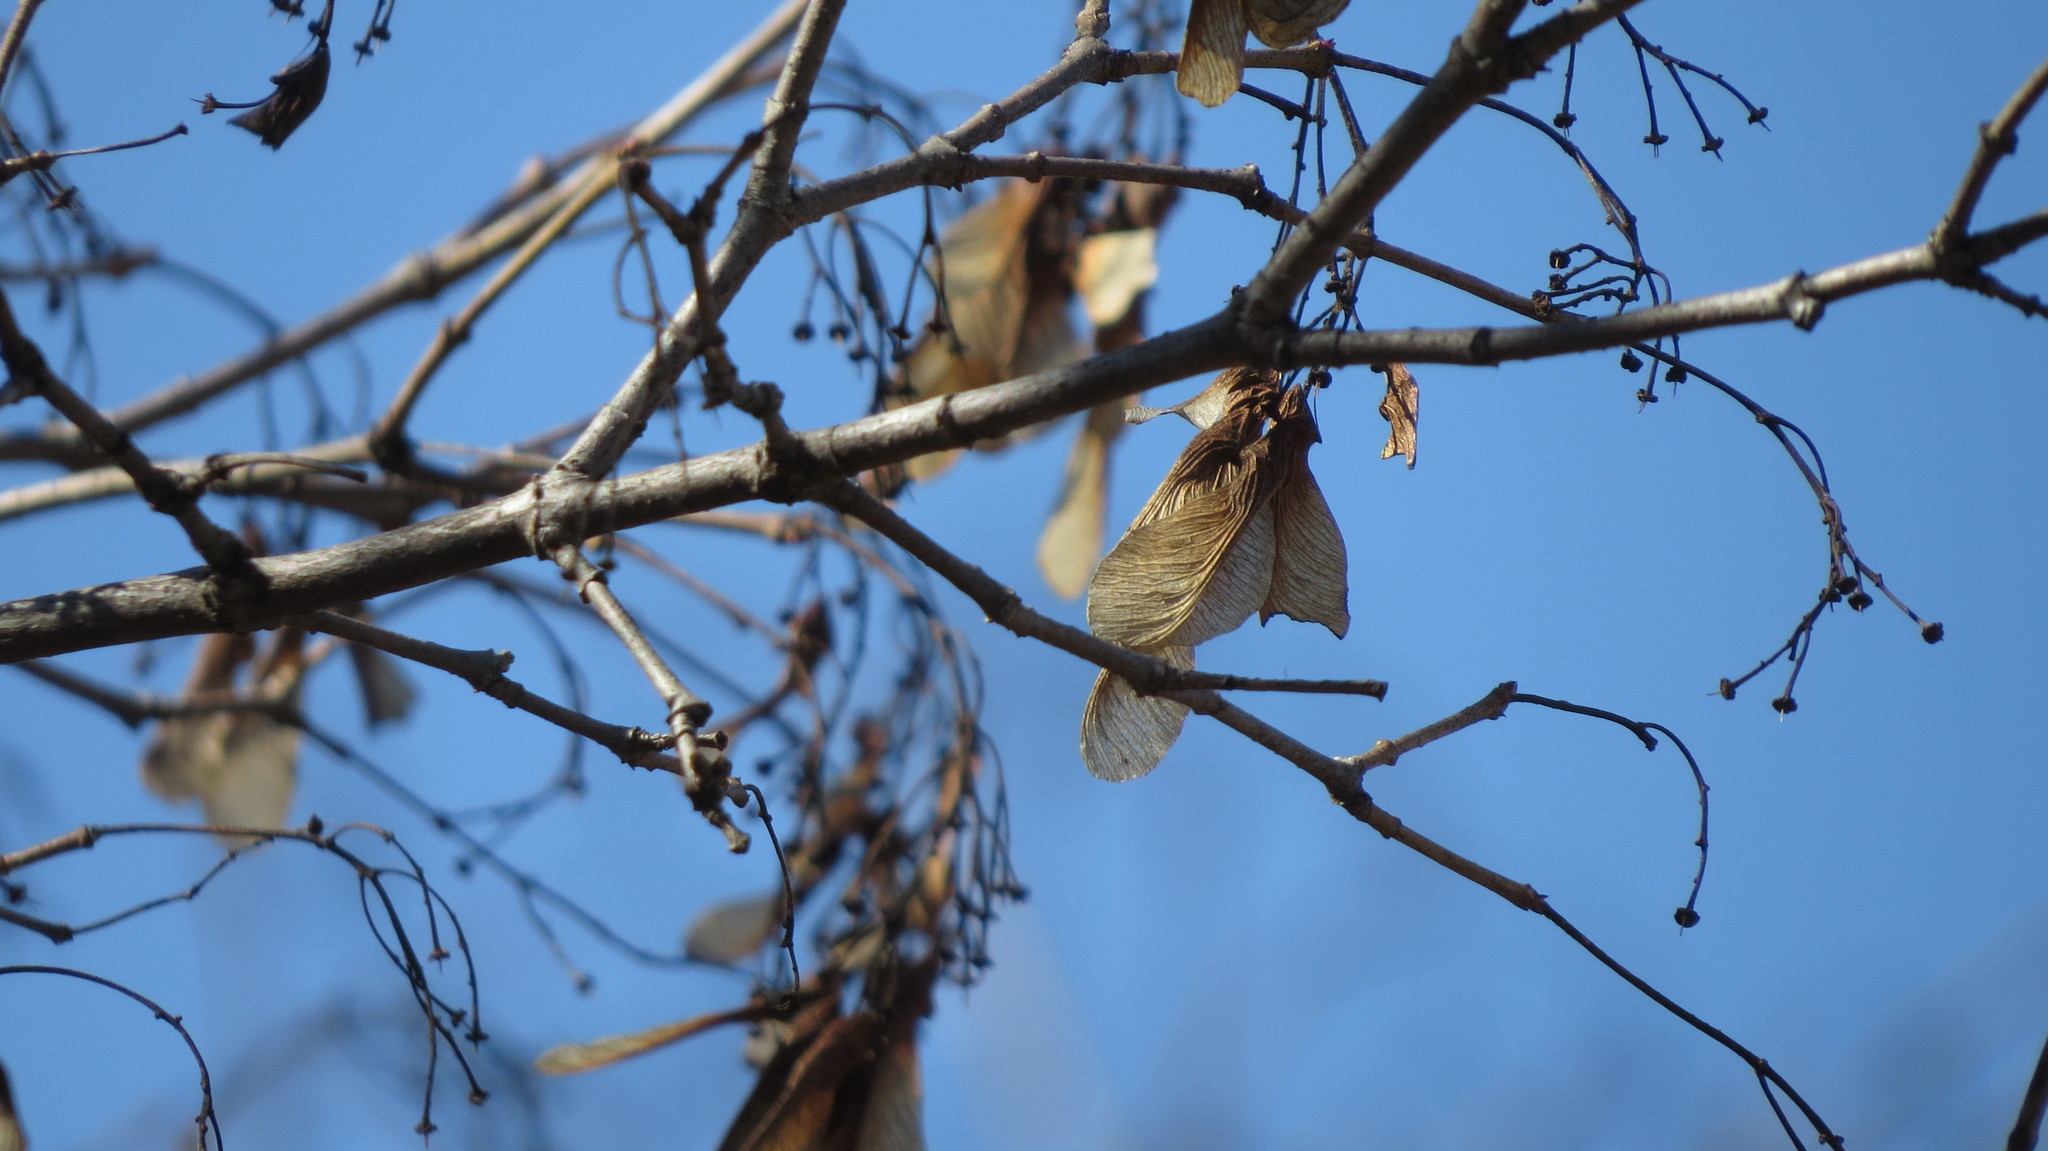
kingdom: Plantae
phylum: Tracheophyta
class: Magnoliopsida
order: Sapindales
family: Sapindaceae
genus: Acer
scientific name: Acer negundo
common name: Ashleaf maple
